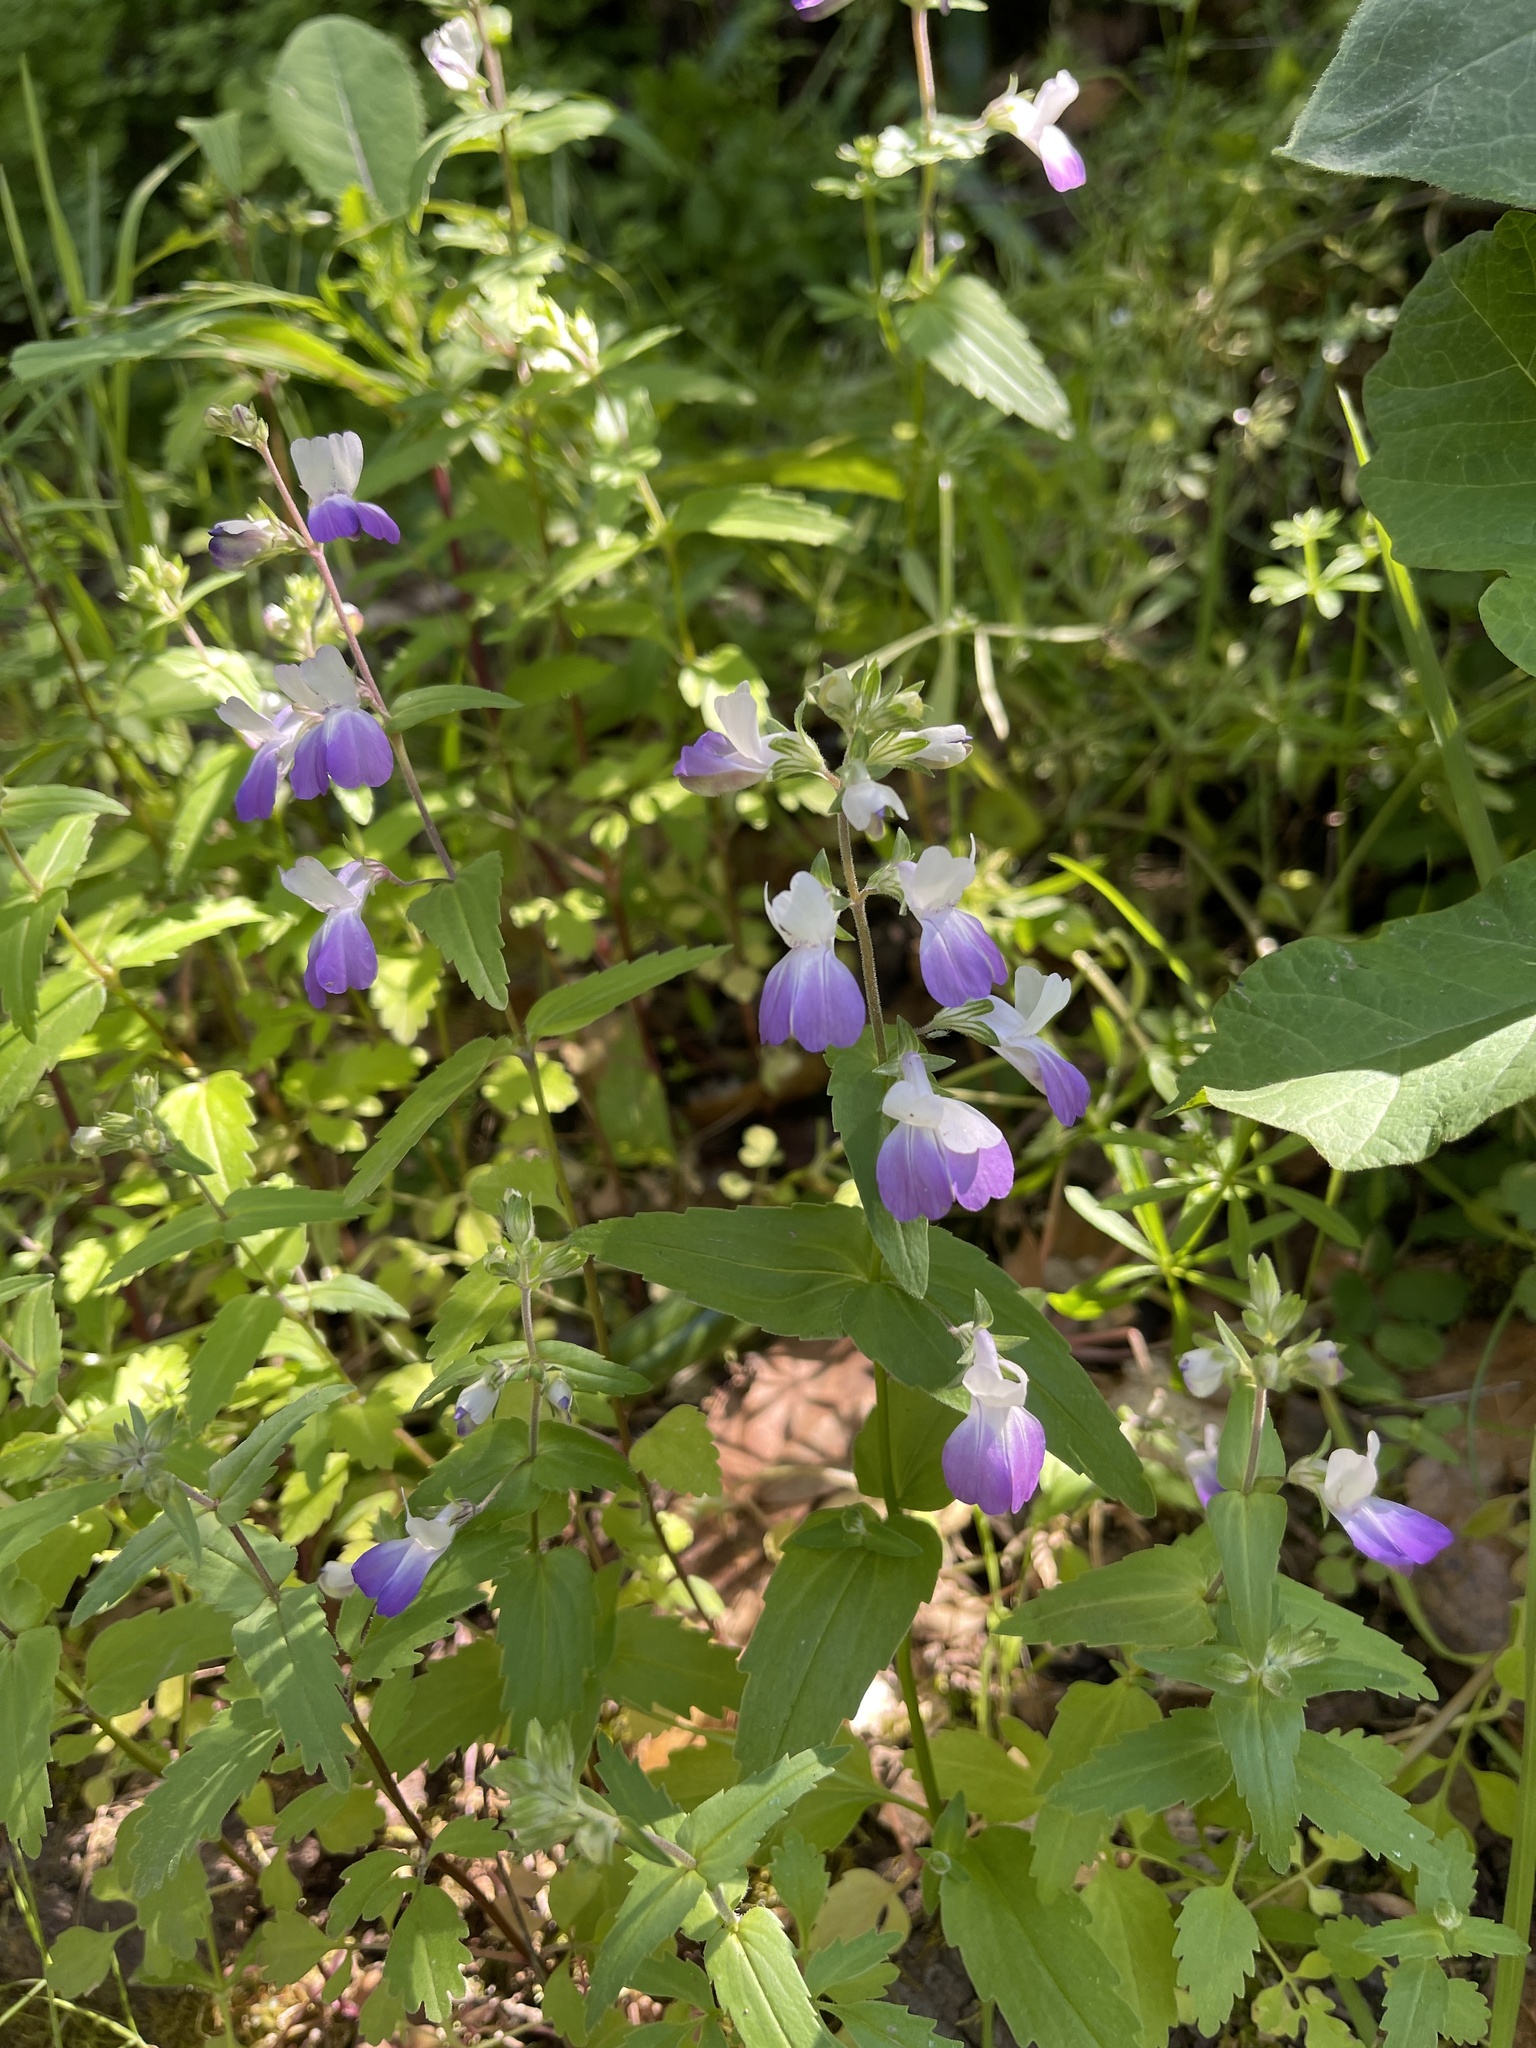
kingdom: Plantae
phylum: Tracheophyta
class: Magnoliopsida
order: Lamiales
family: Plantaginaceae
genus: Collinsia
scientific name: Collinsia multicolor
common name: San francisco collinsia
